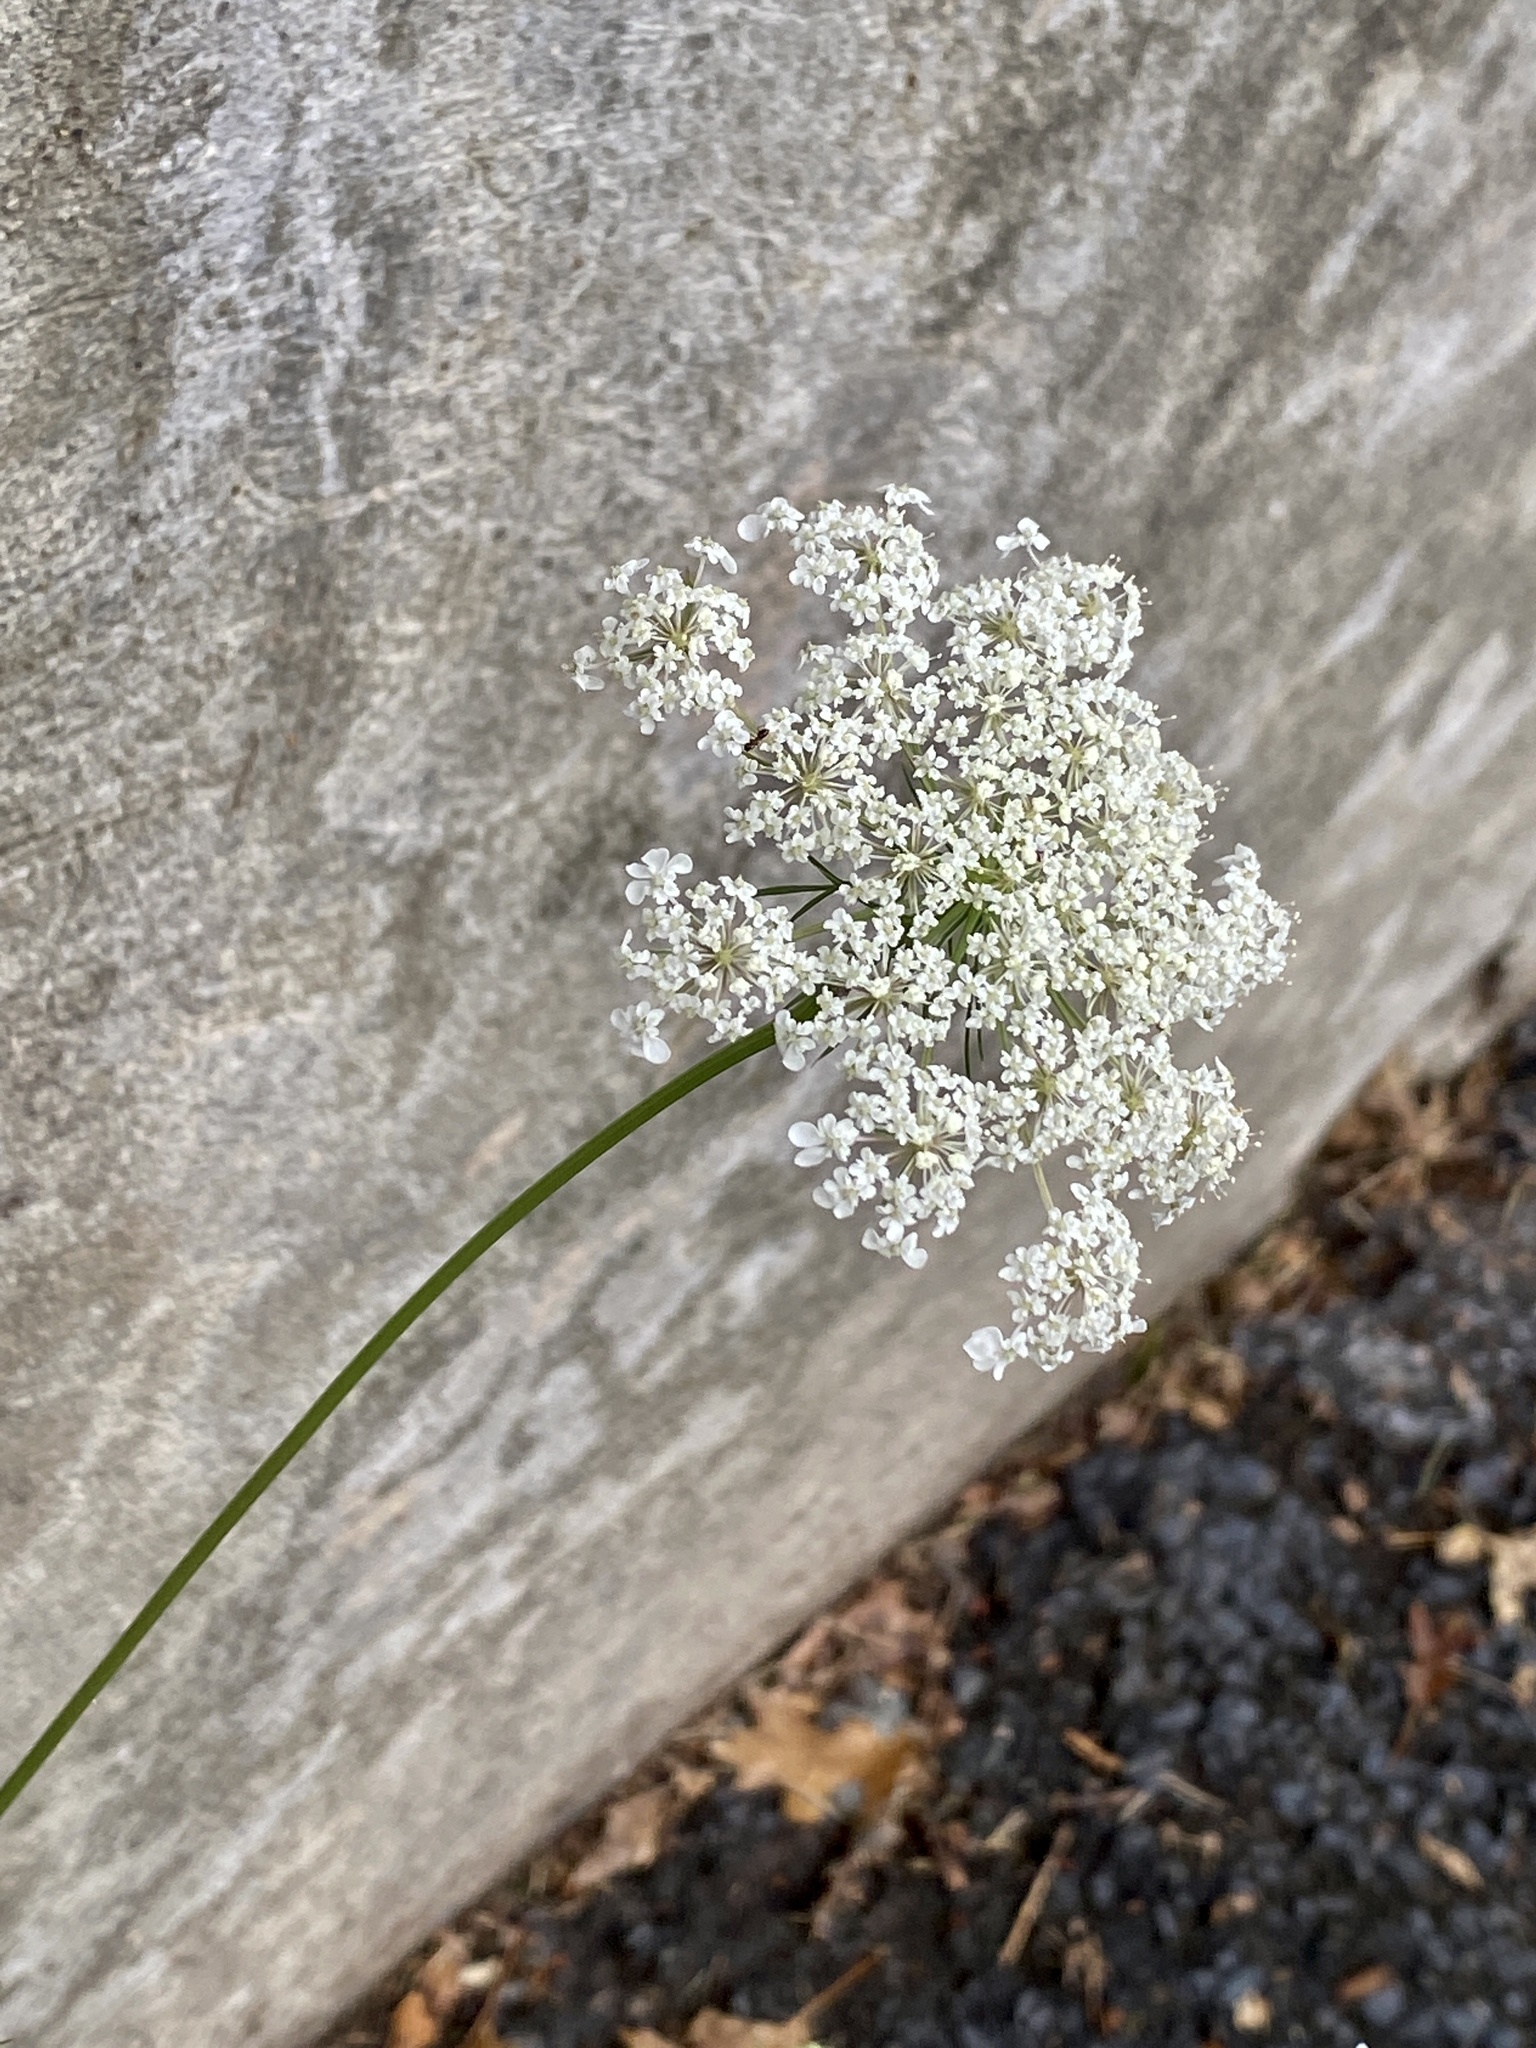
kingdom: Plantae
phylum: Tracheophyta
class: Magnoliopsida
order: Apiales
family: Apiaceae
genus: Daucus
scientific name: Daucus carota
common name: Wild carrot
